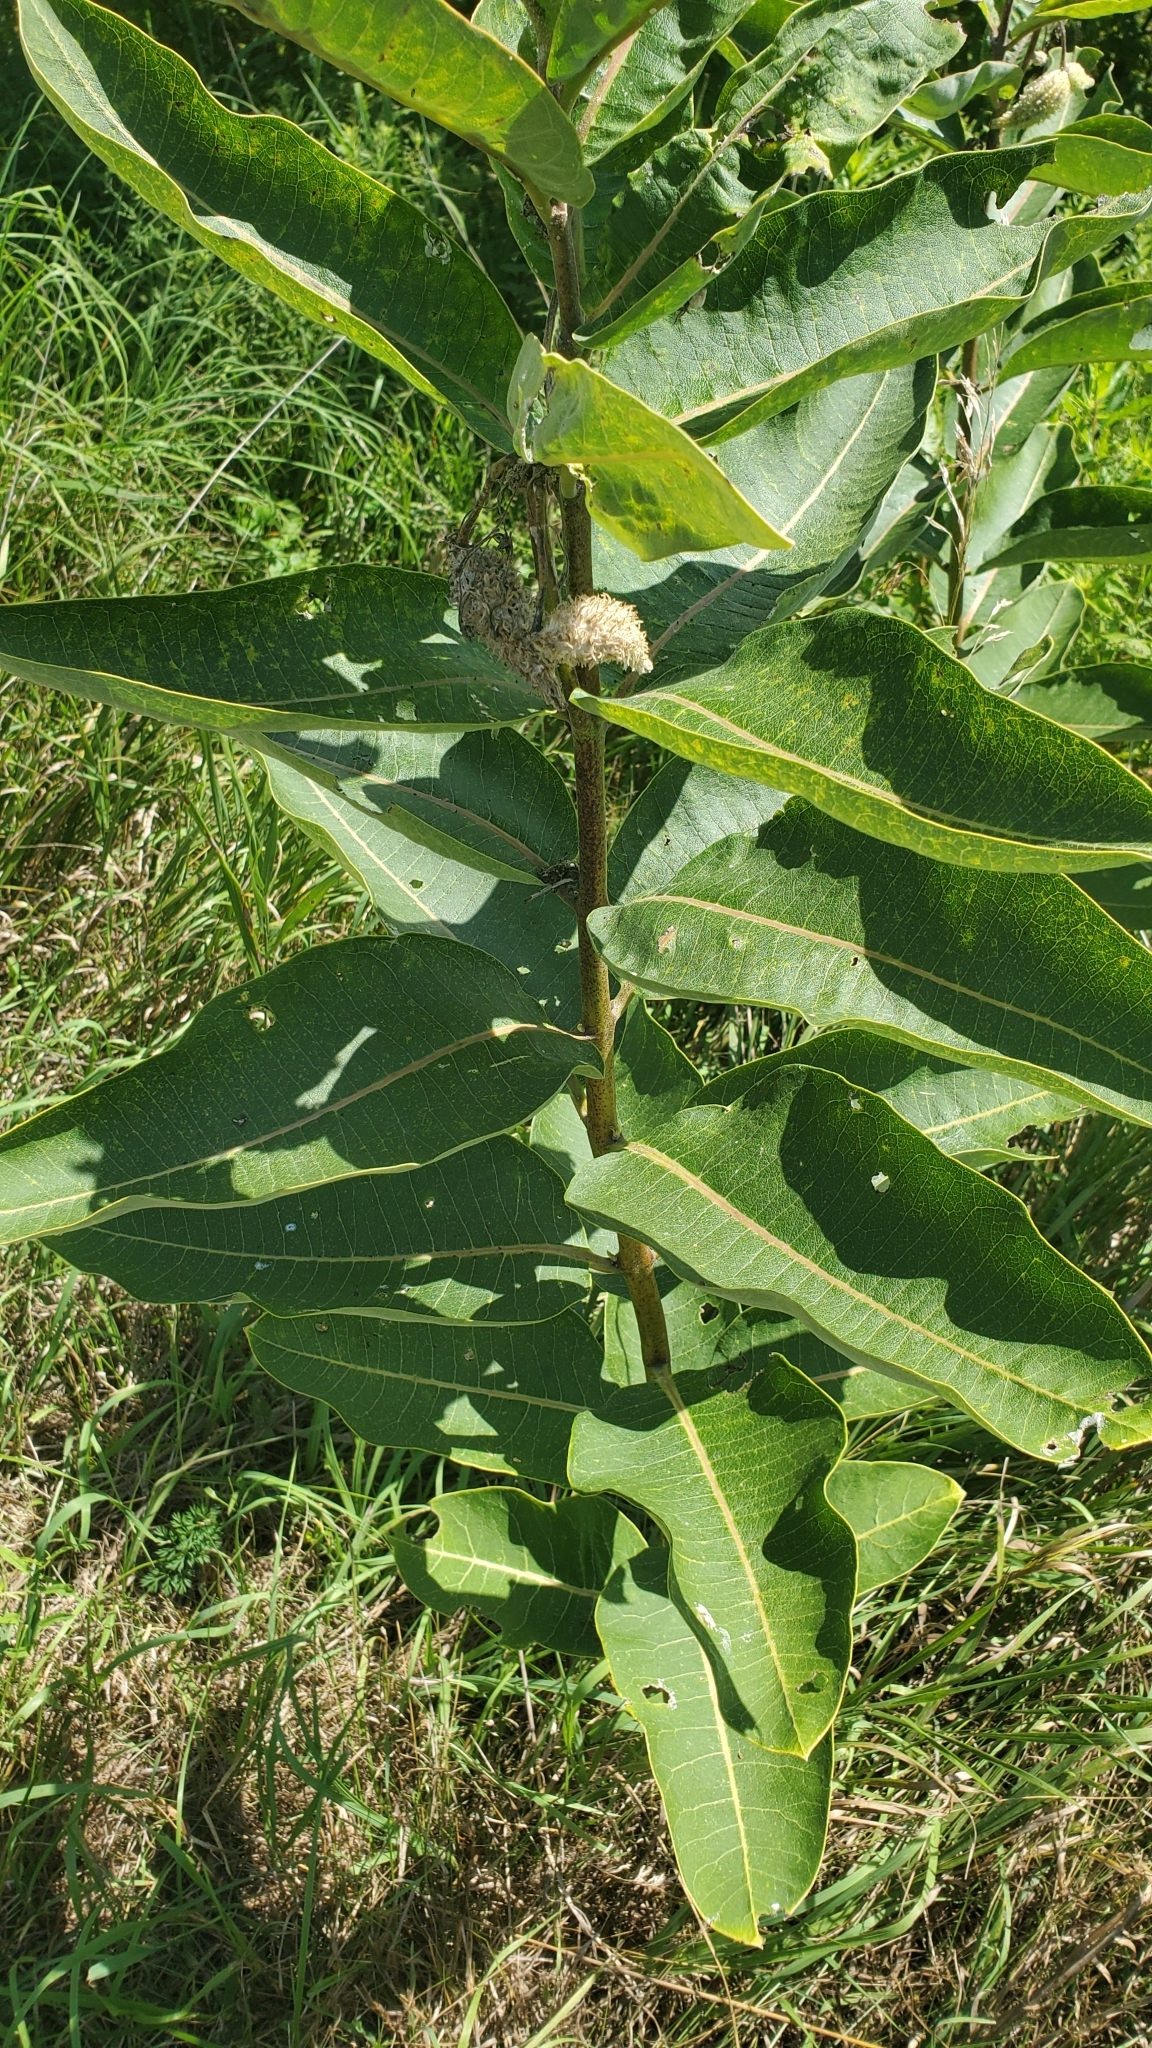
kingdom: Plantae
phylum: Tracheophyta
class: Magnoliopsida
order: Gentianales
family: Apocynaceae
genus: Asclepias
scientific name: Asclepias syriaca
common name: Common milkweed
